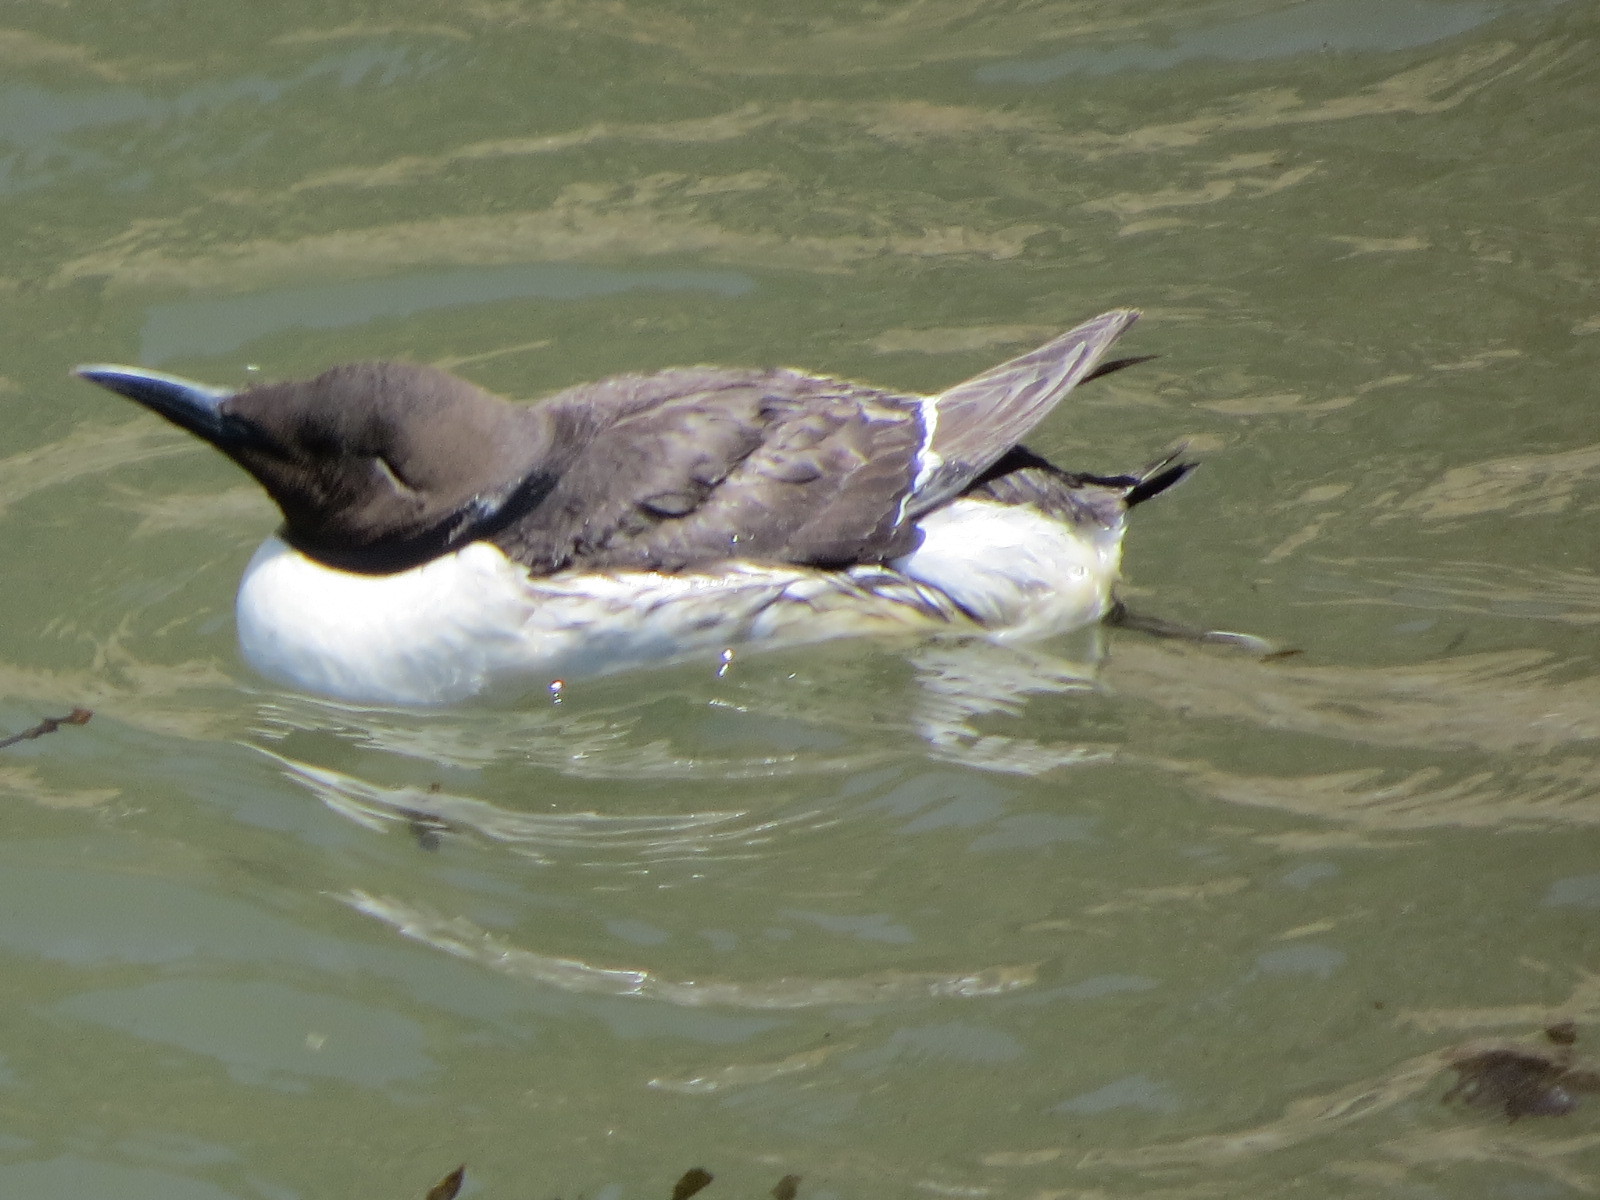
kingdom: Animalia
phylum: Chordata
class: Aves
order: Charadriiformes
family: Alcidae
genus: Uria
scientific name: Uria aalge
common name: Common murre
